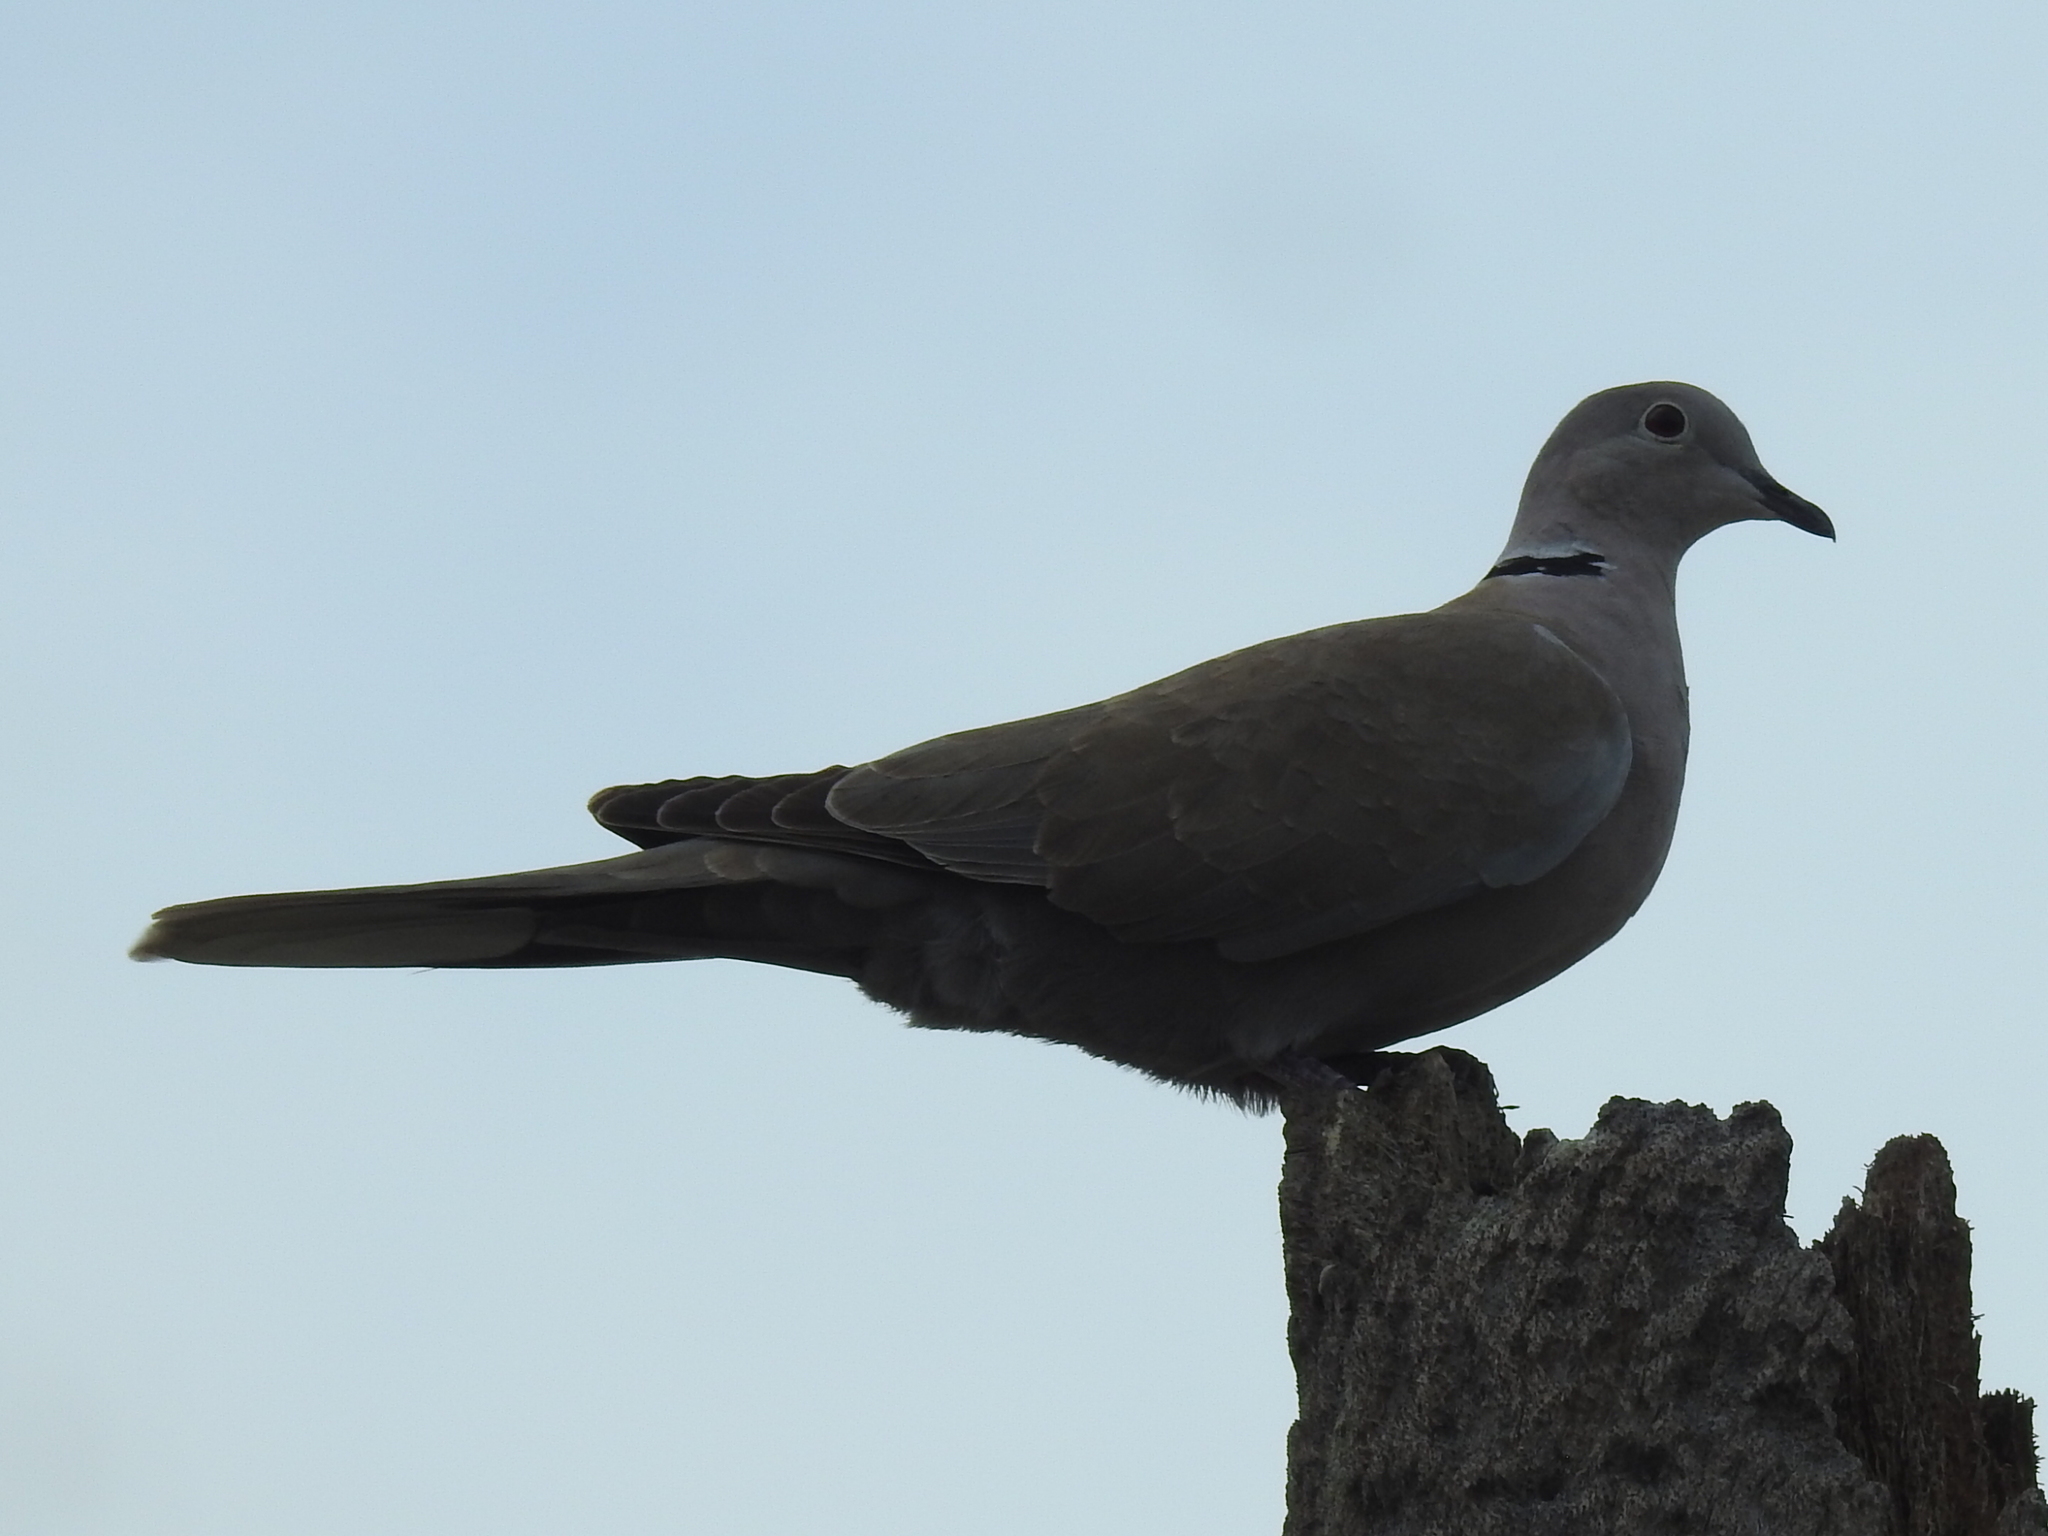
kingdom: Animalia
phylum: Chordata
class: Aves
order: Columbiformes
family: Columbidae
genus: Streptopelia
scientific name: Streptopelia decaocto
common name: Eurasian collared dove
